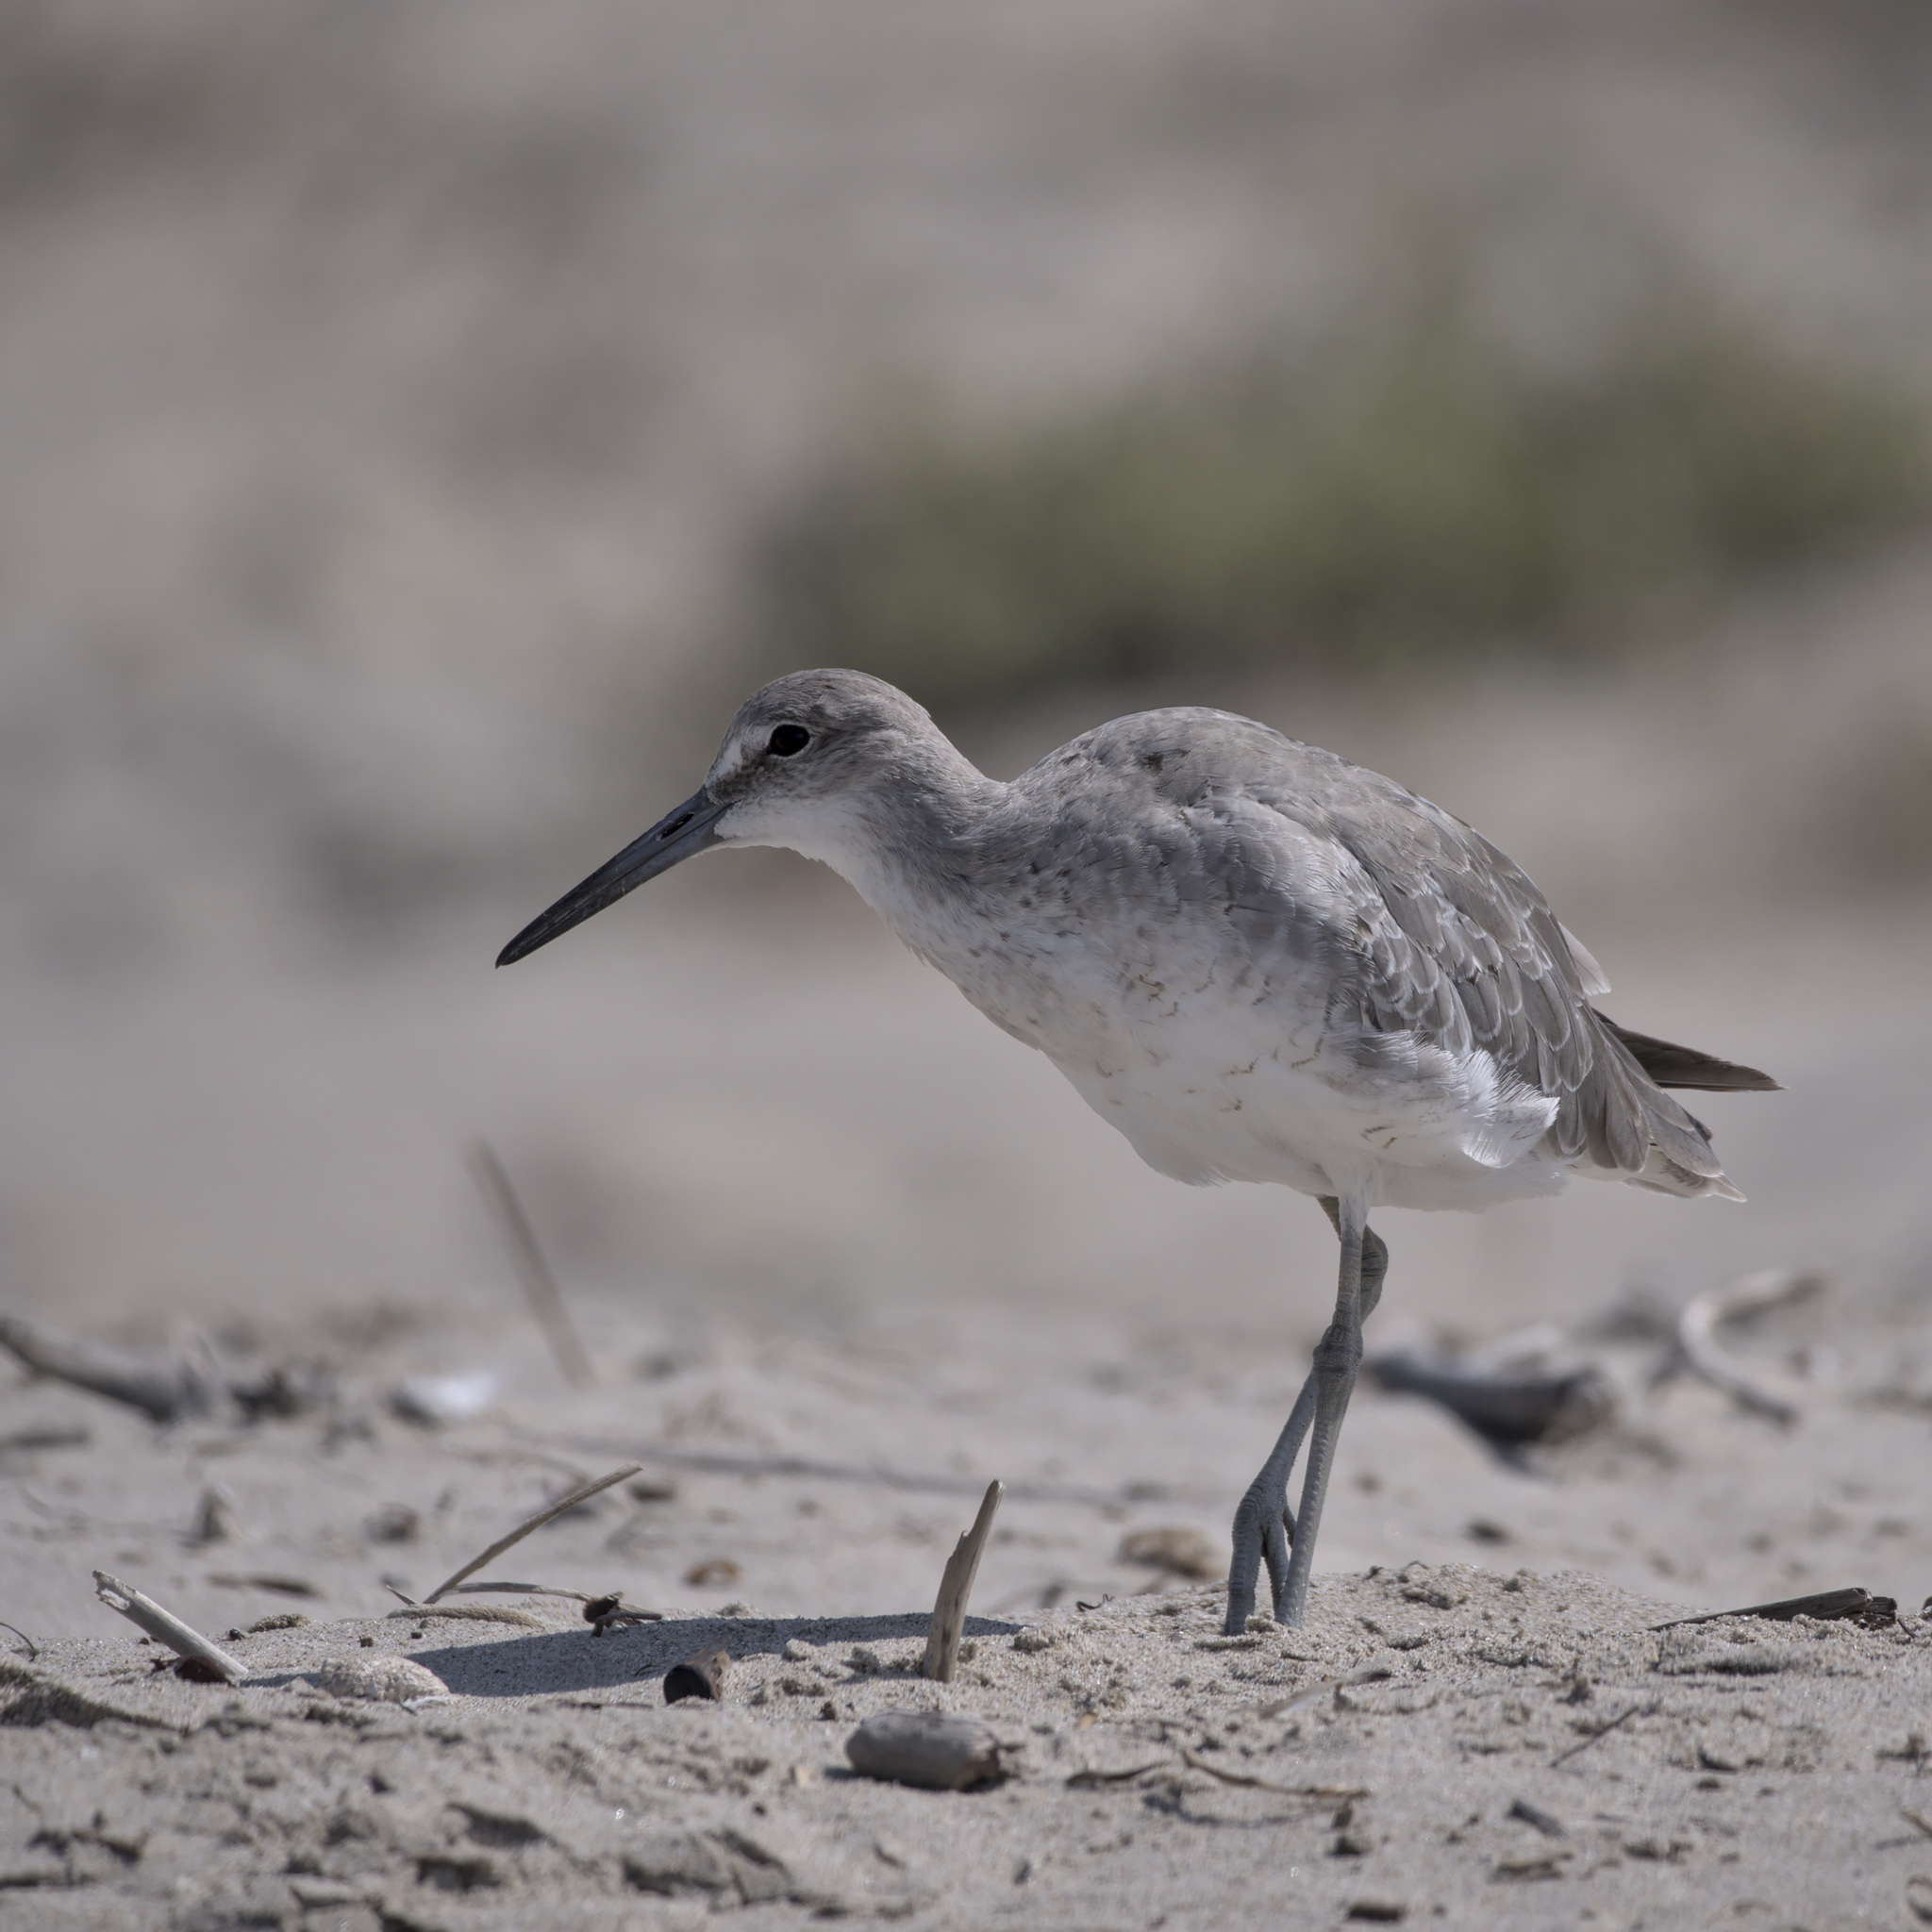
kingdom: Animalia
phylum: Chordata
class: Aves
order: Charadriiformes
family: Scolopacidae
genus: Tringa
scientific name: Tringa semipalmata
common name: Willet
